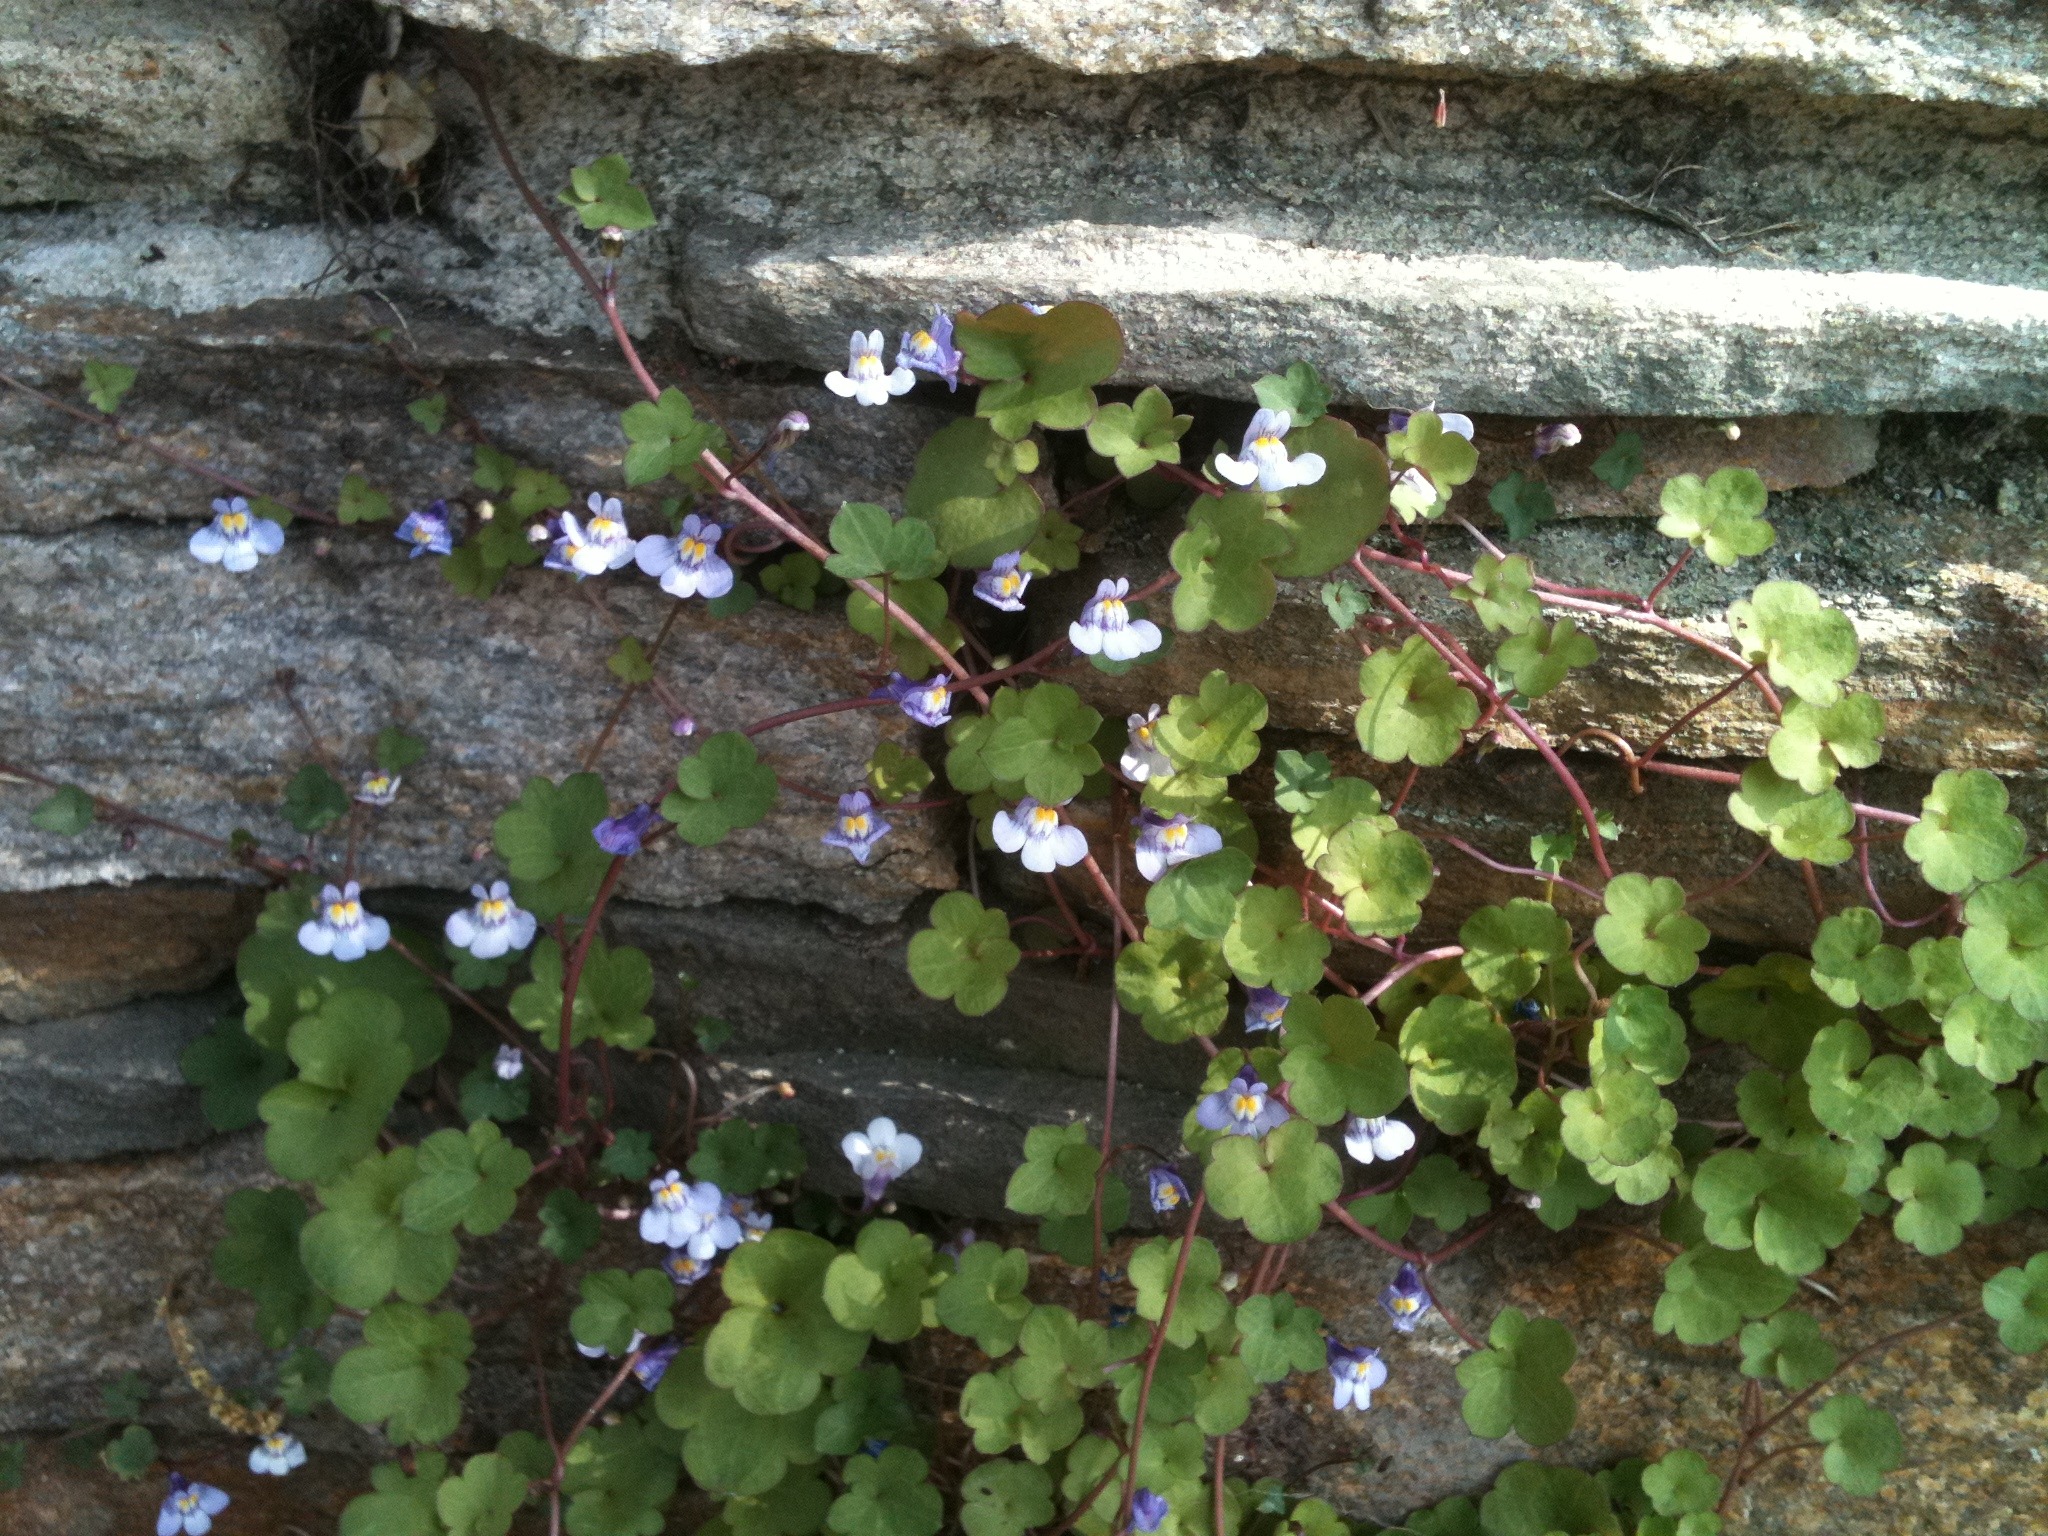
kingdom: Plantae
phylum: Tracheophyta
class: Magnoliopsida
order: Lamiales
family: Plantaginaceae
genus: Cymbalaria
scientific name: Cymbalaria muralis
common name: Ivy-leaved toadflax
